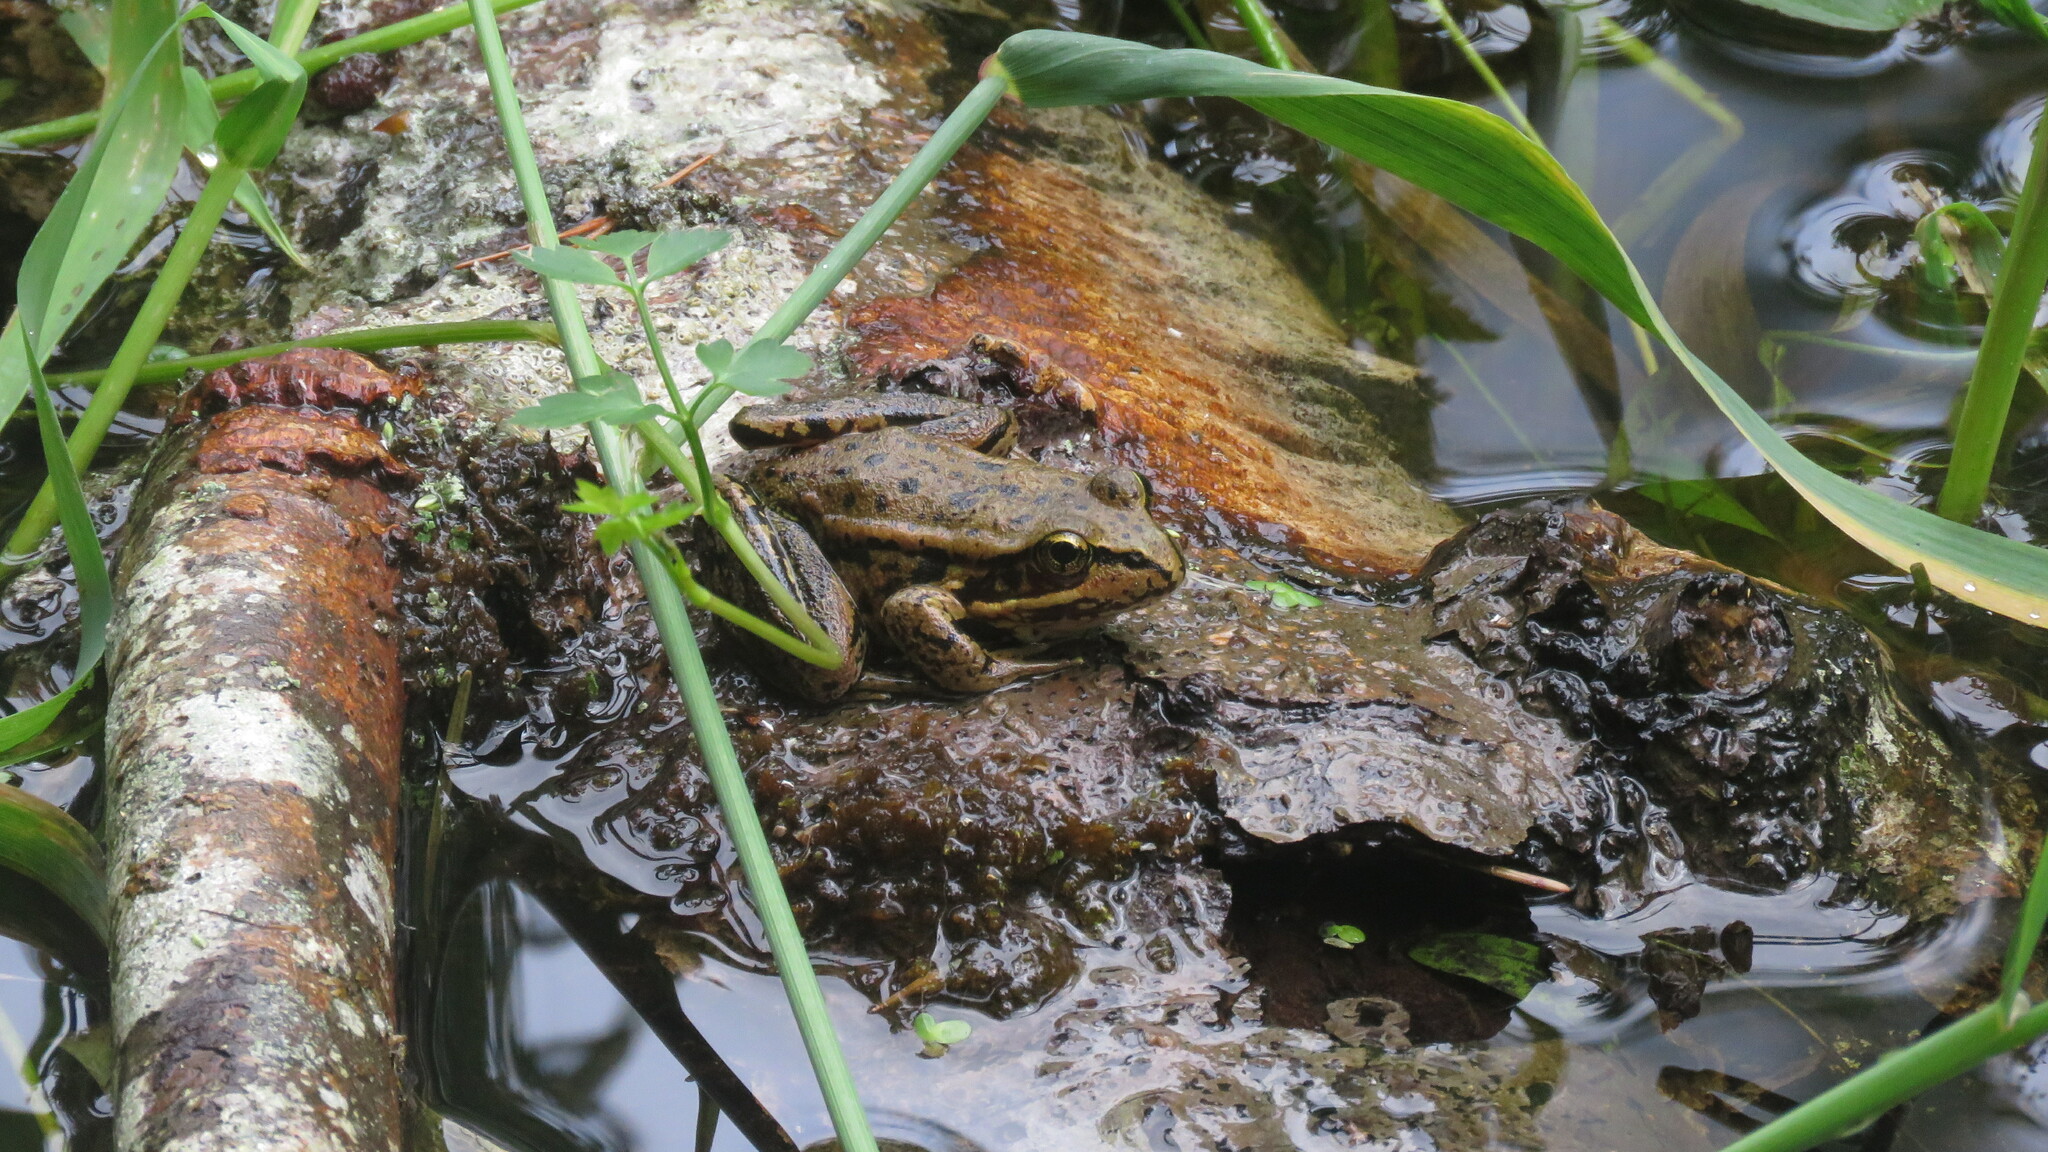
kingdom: Animalia
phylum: Chordata
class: Amphibia
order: Anura
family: Ranidae
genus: Rana
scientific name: Rana aurora
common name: Red-legged frog
